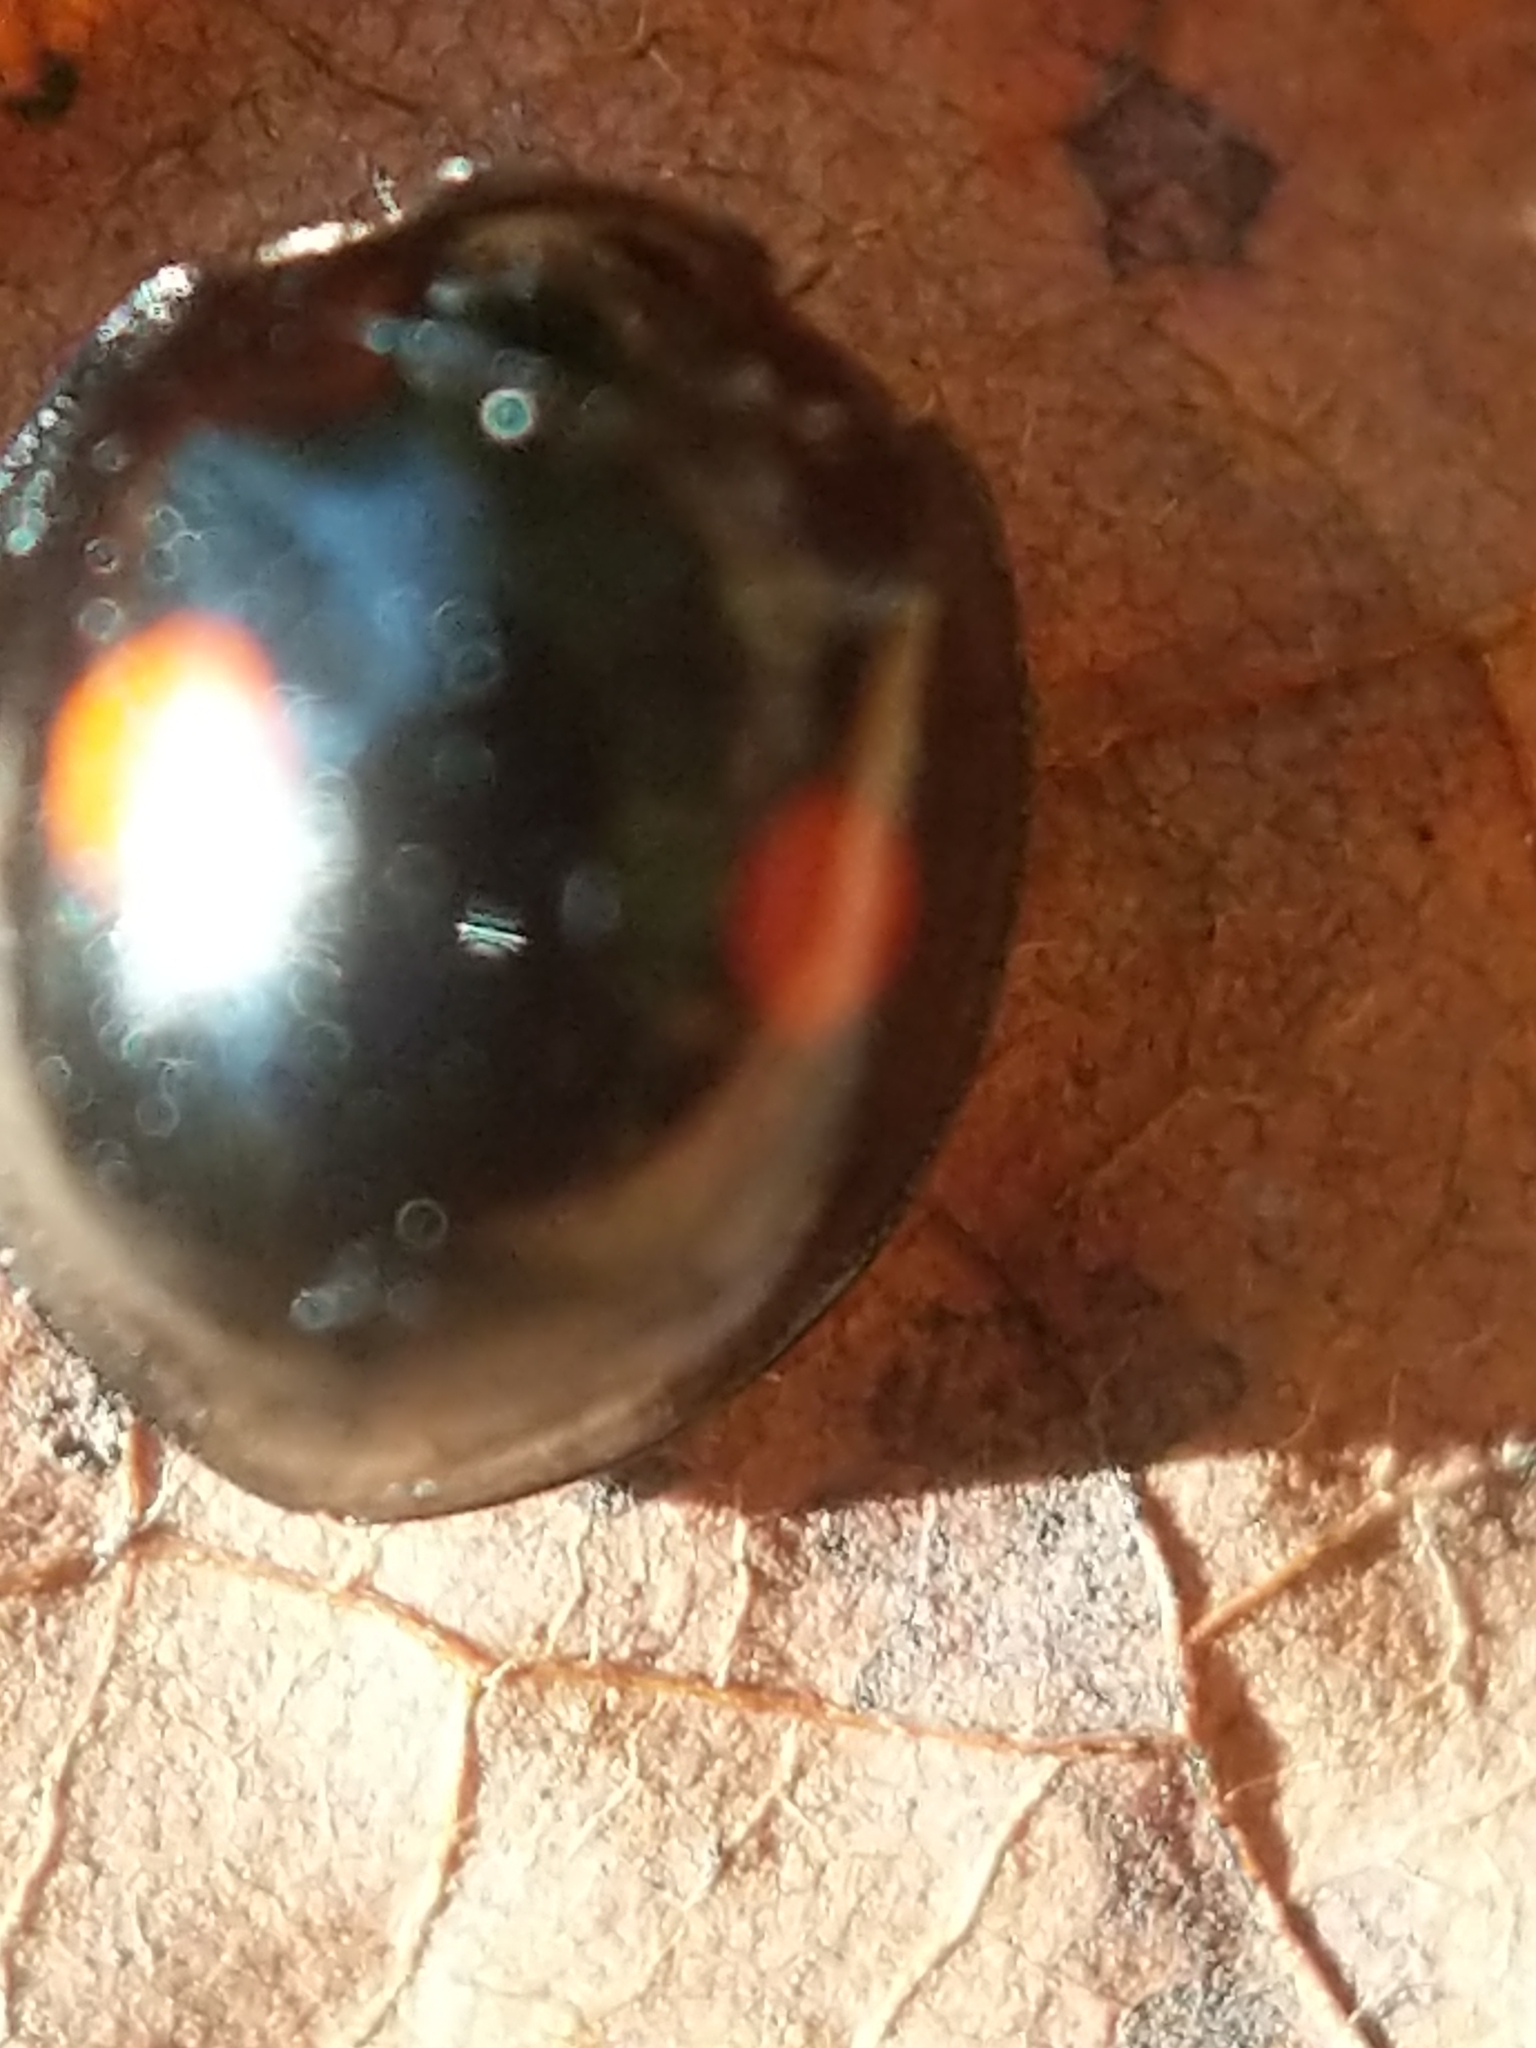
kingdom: Animalia
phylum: Arthropoda
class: Insecta
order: Coleoptera
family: Coccinellidae
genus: Chilocorus
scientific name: Chilocorus stigma
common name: Twicestabbed lady beetle
